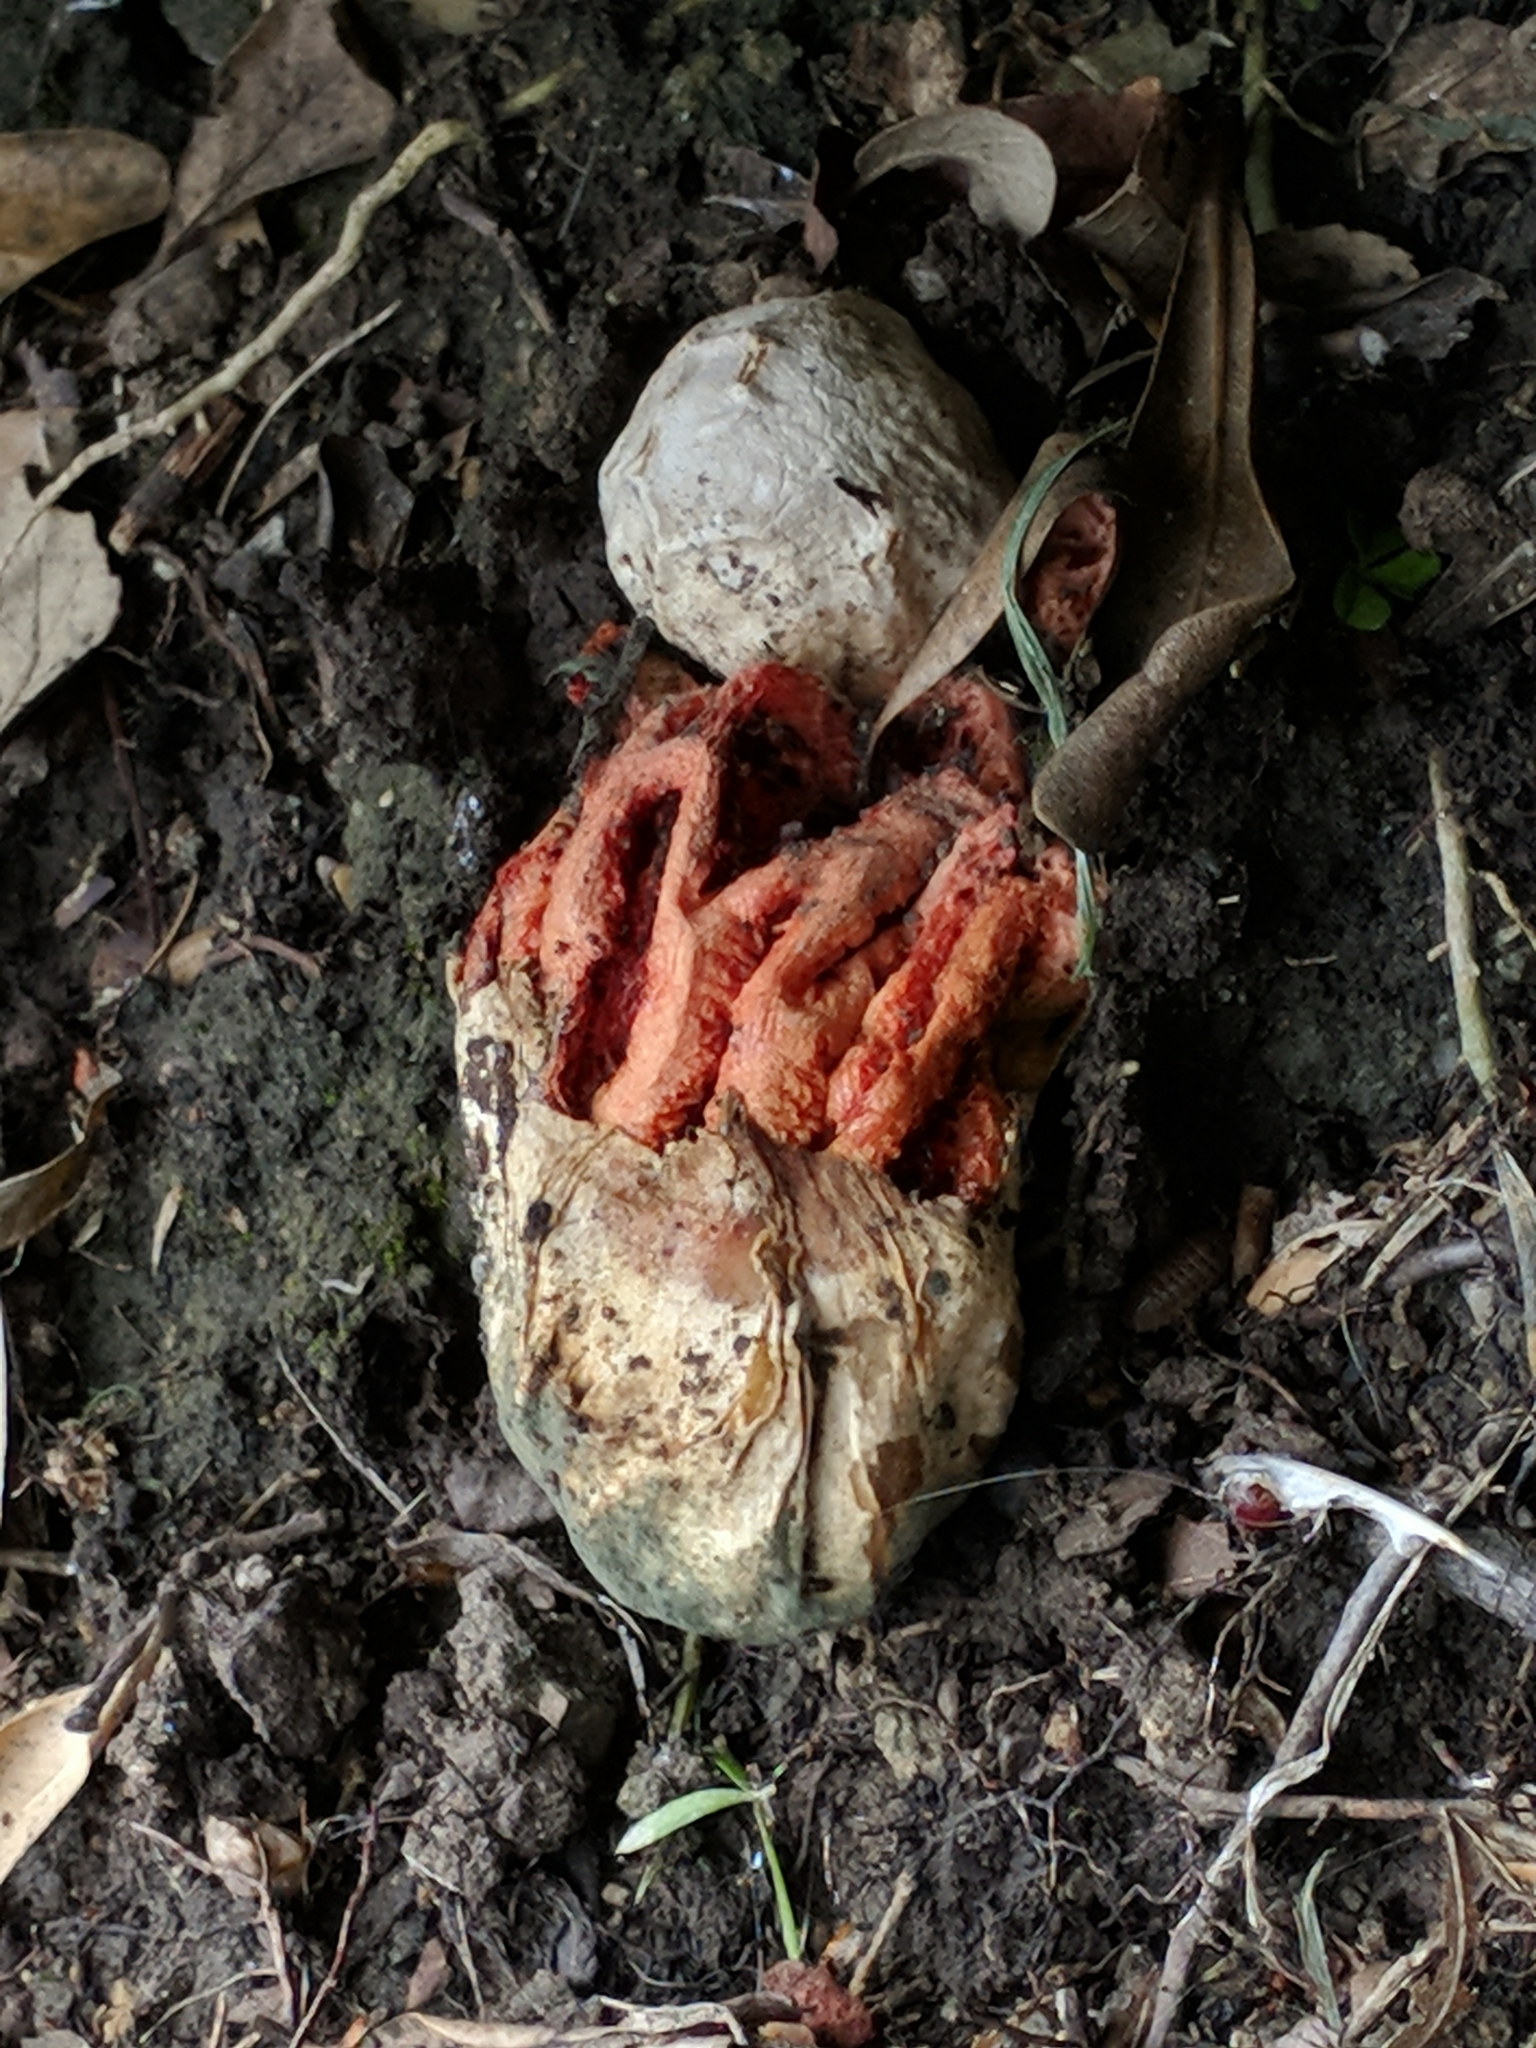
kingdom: Fungi
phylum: Basidiomycota
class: Agaricomycetes
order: Phallales
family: Phallaceae
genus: Clathrus
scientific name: Clathrus ruber
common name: Red cage
